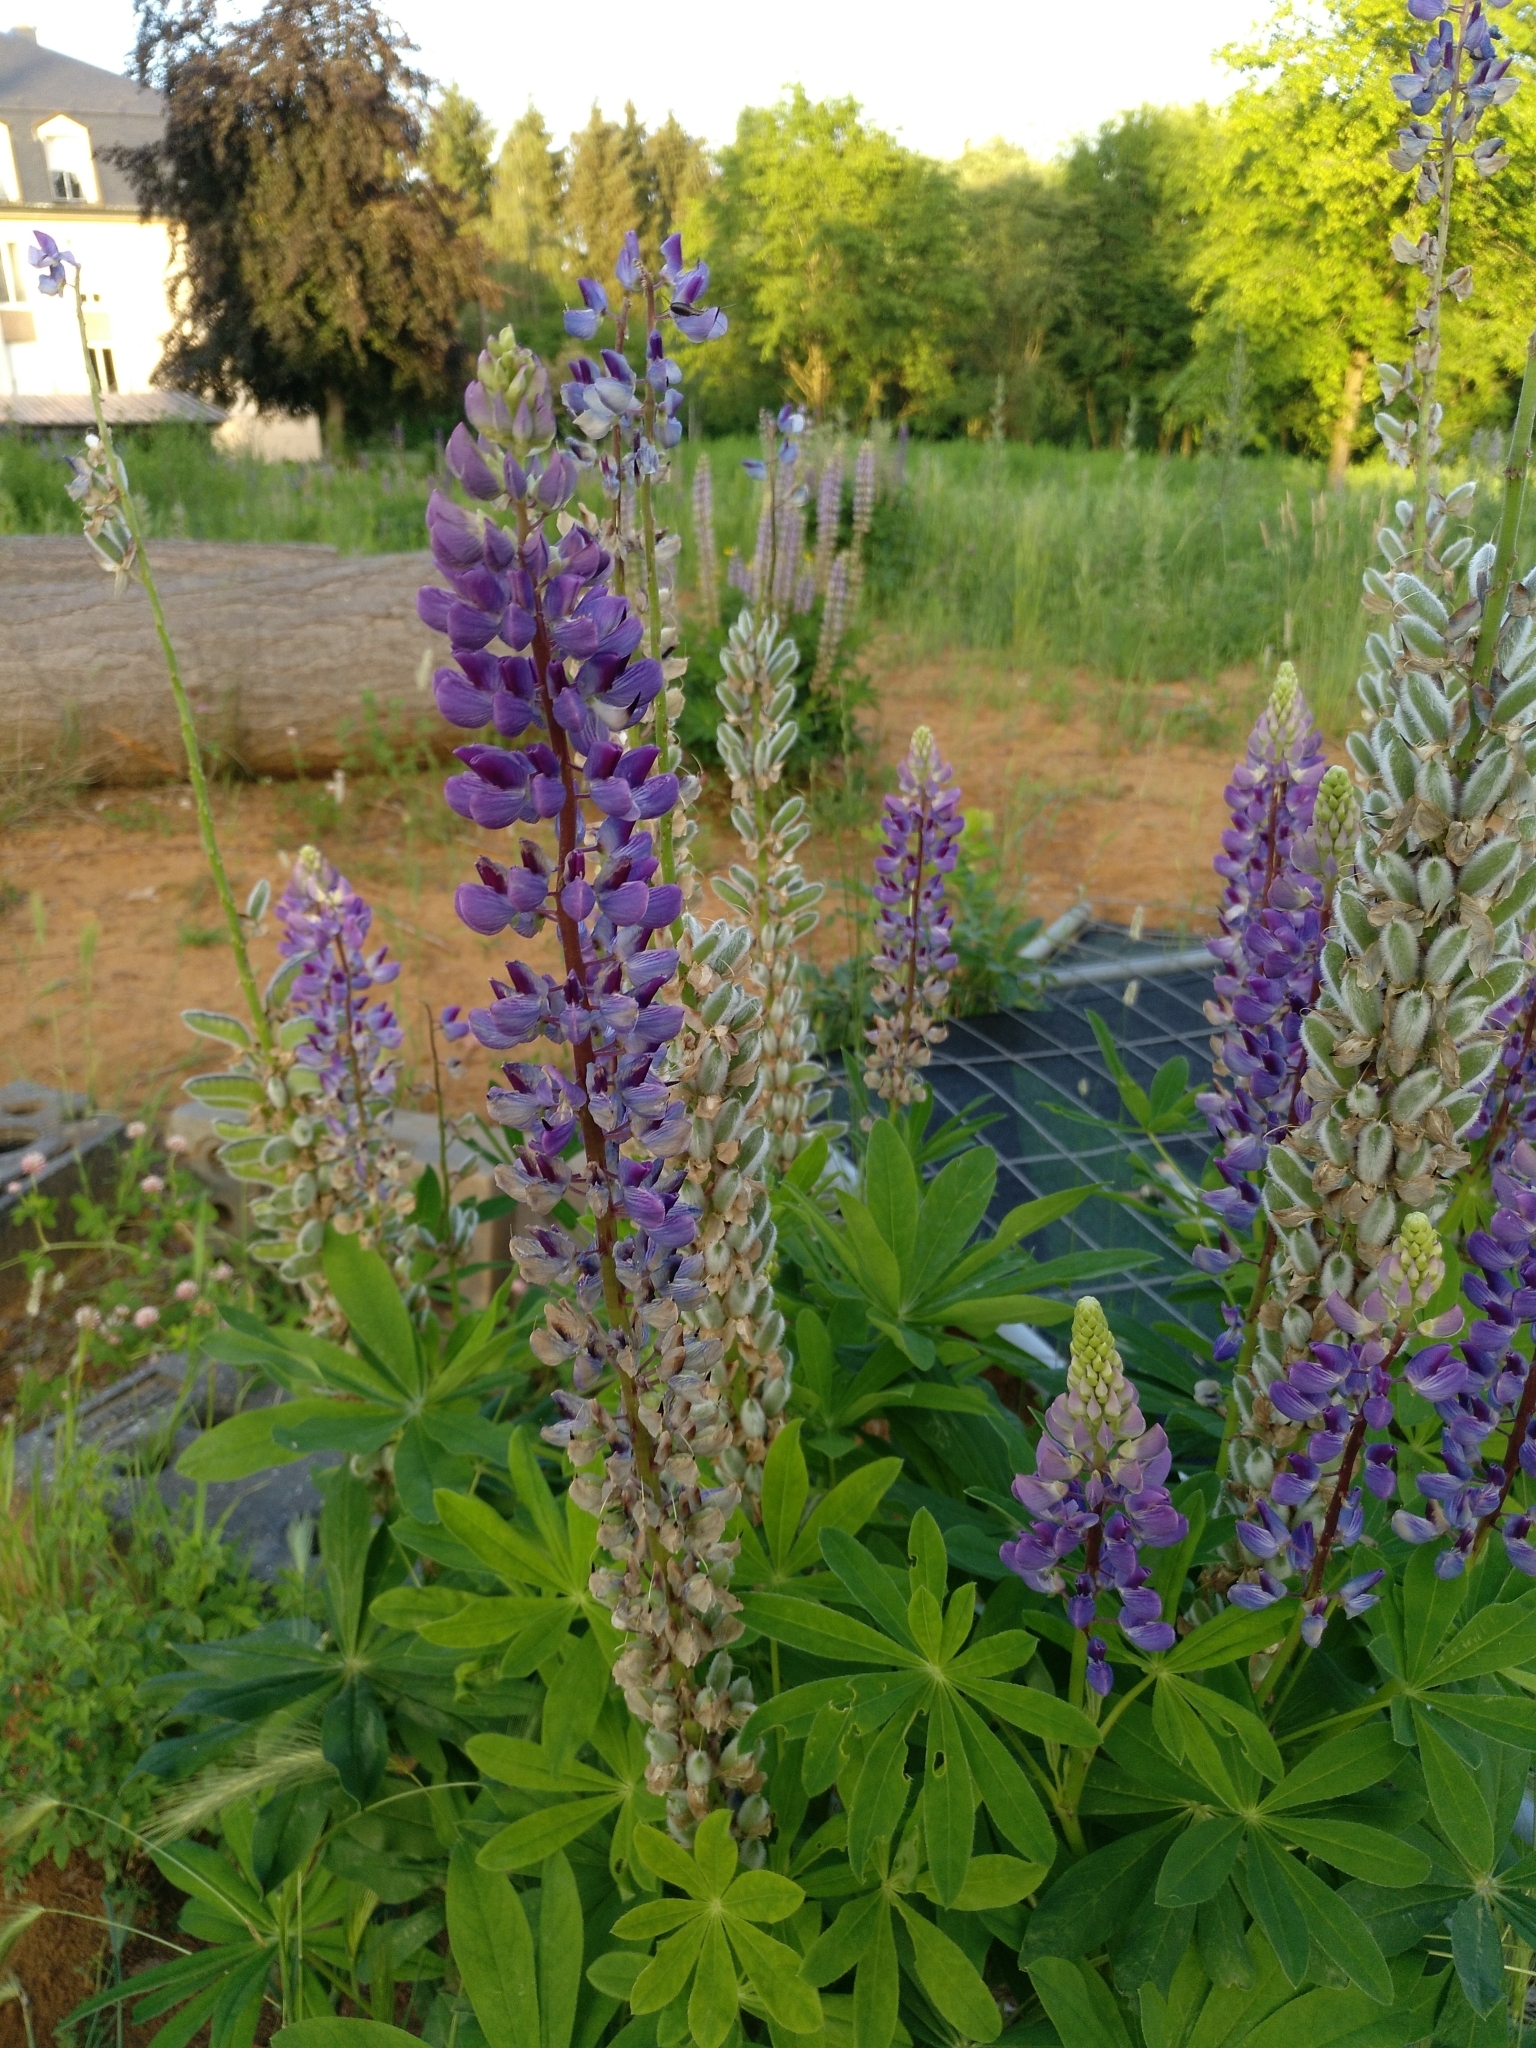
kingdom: Plantae
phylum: Tracheophyta
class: Magnoliopsida
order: Fabales
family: Fabaceae
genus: Lupinus
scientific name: Lupinus polyphyllus
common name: Garden lupin
